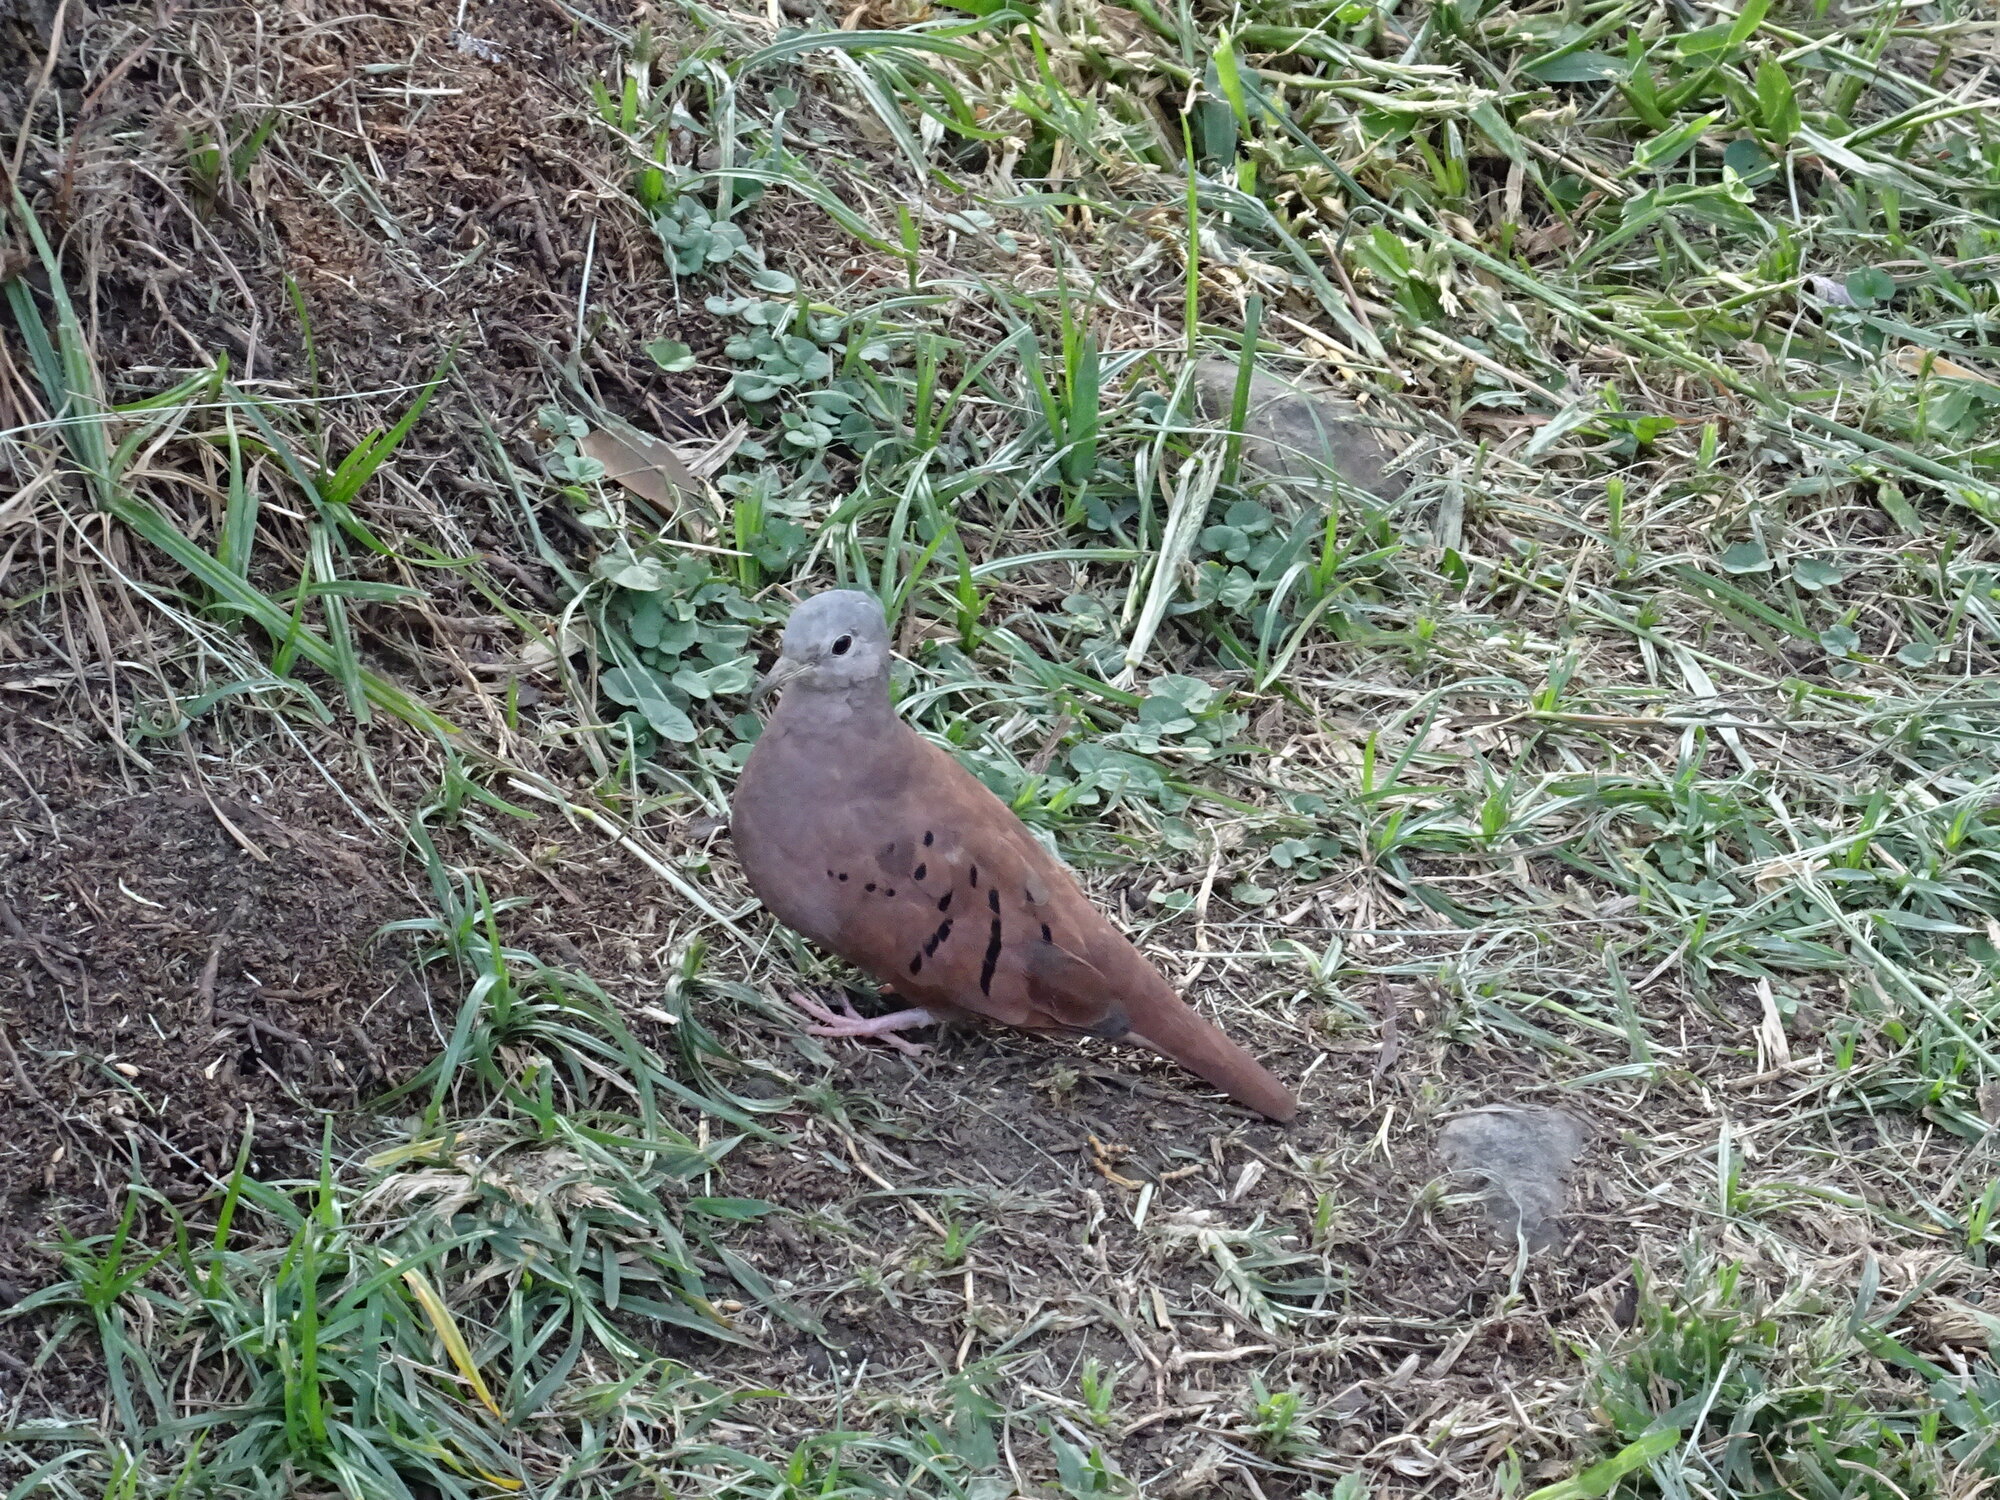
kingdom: Animalia
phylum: Chordata
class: Aves
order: Columbiformes
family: Columbidae
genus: Columbina
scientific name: Columbina talpacoti
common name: Ruddy ground dove
